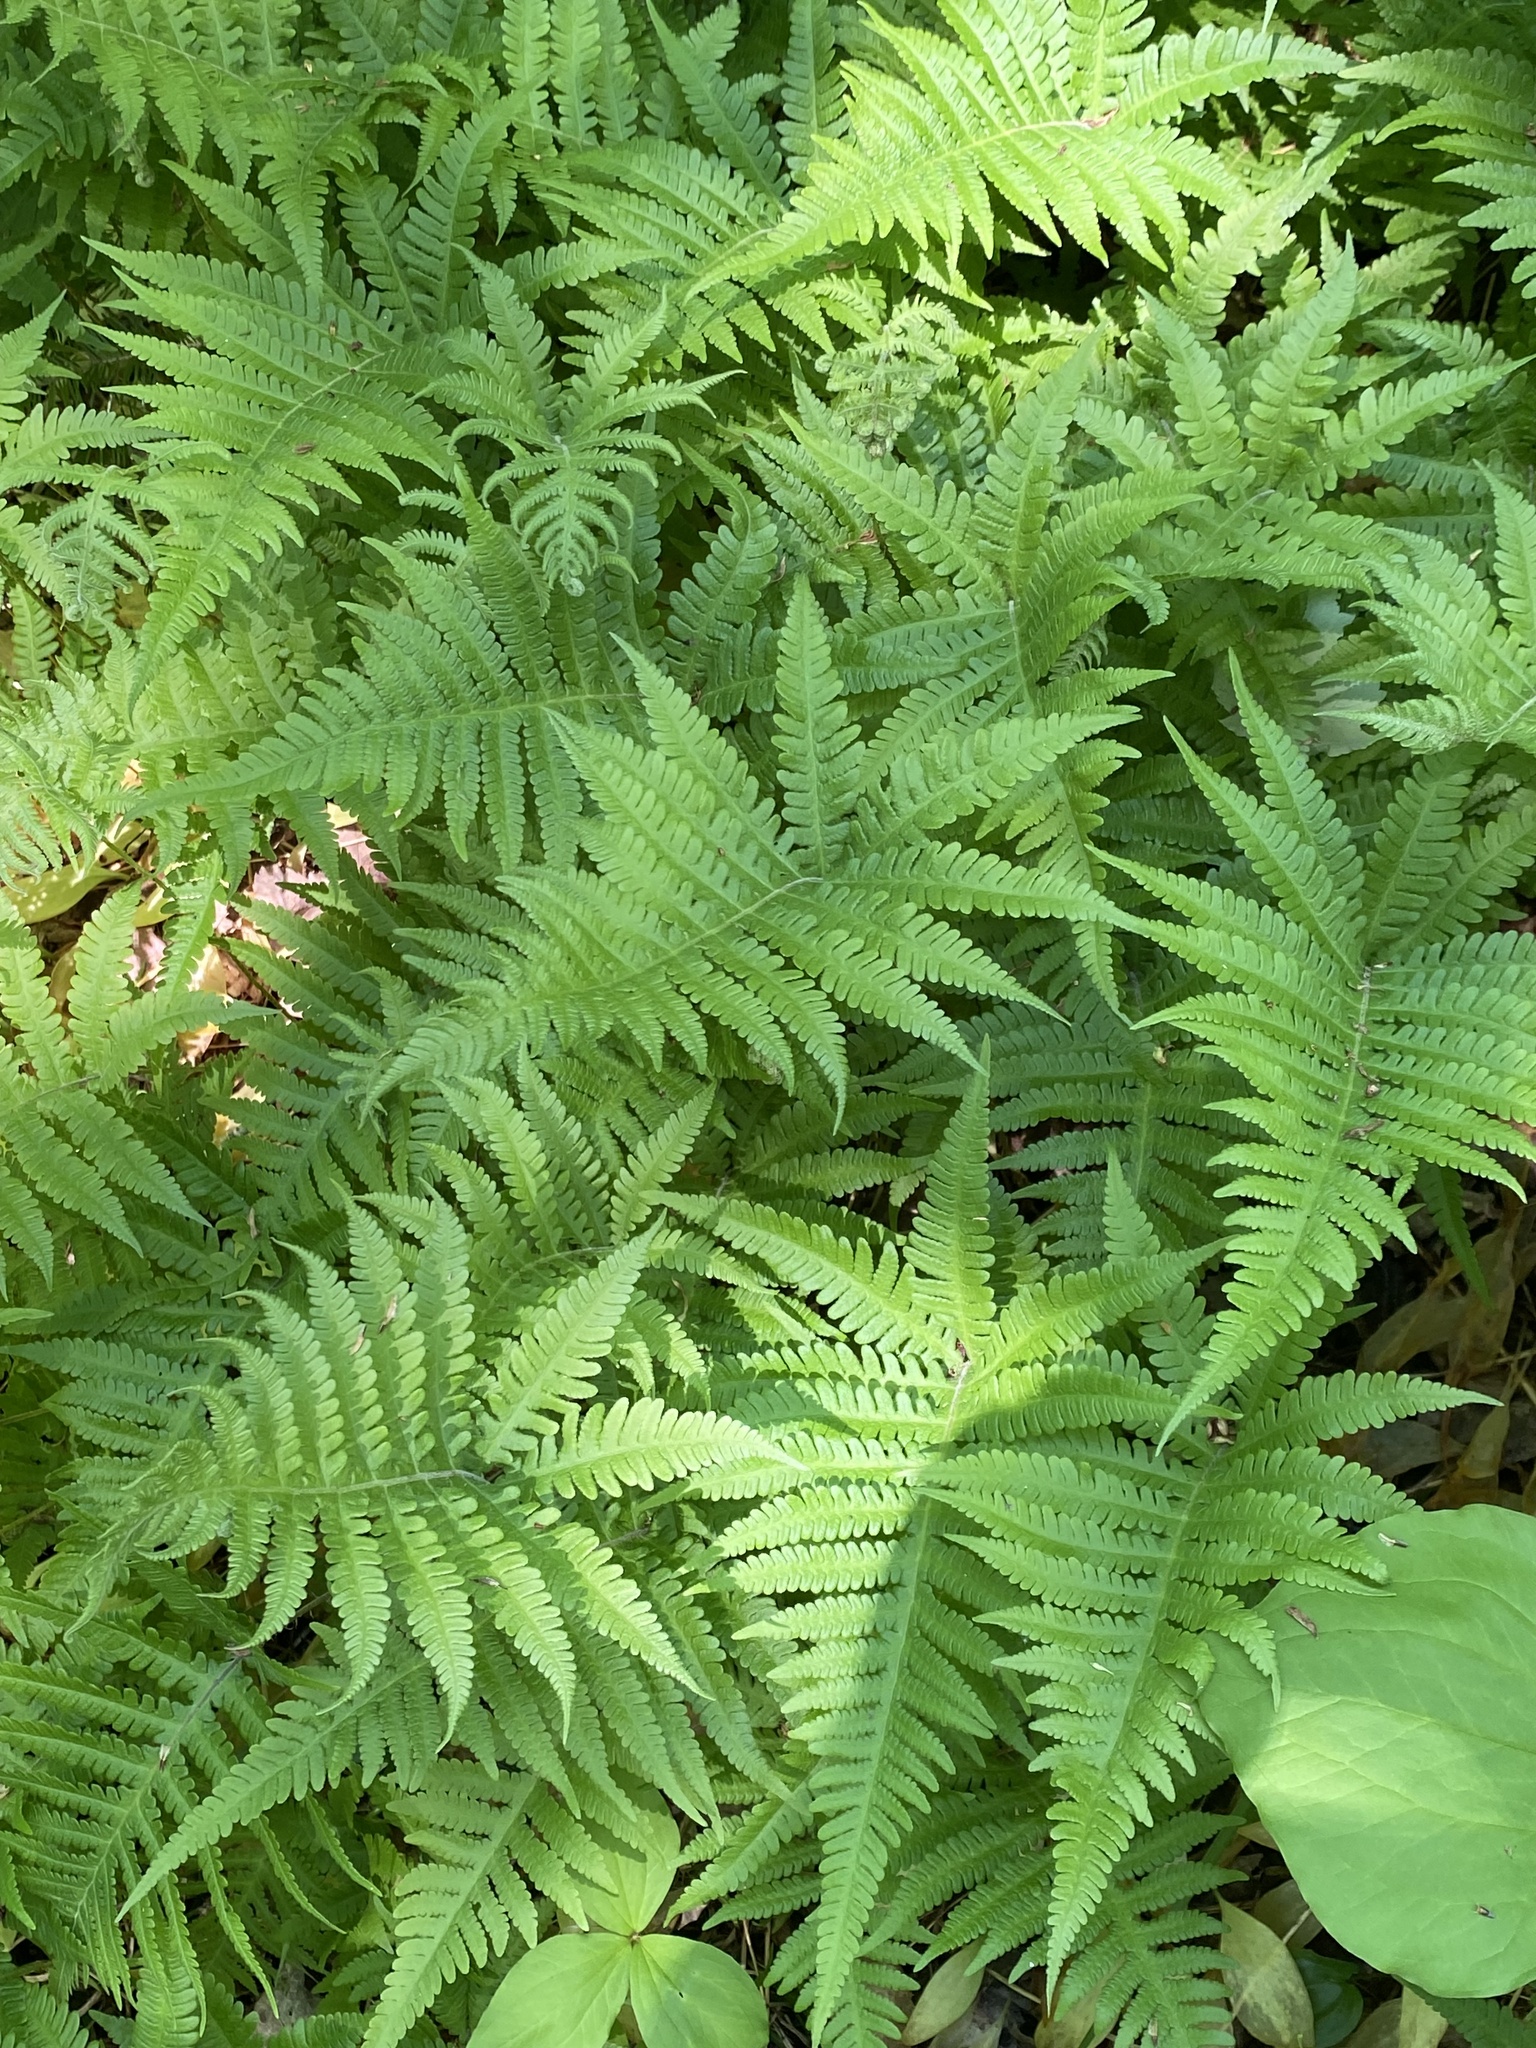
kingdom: Plantae
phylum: Tracheophyta
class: Polypodiopsida
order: Polypodiales
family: Thelypteridaceae
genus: Phegopteris
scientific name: Phegopteris connectilis
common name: Beech fern
